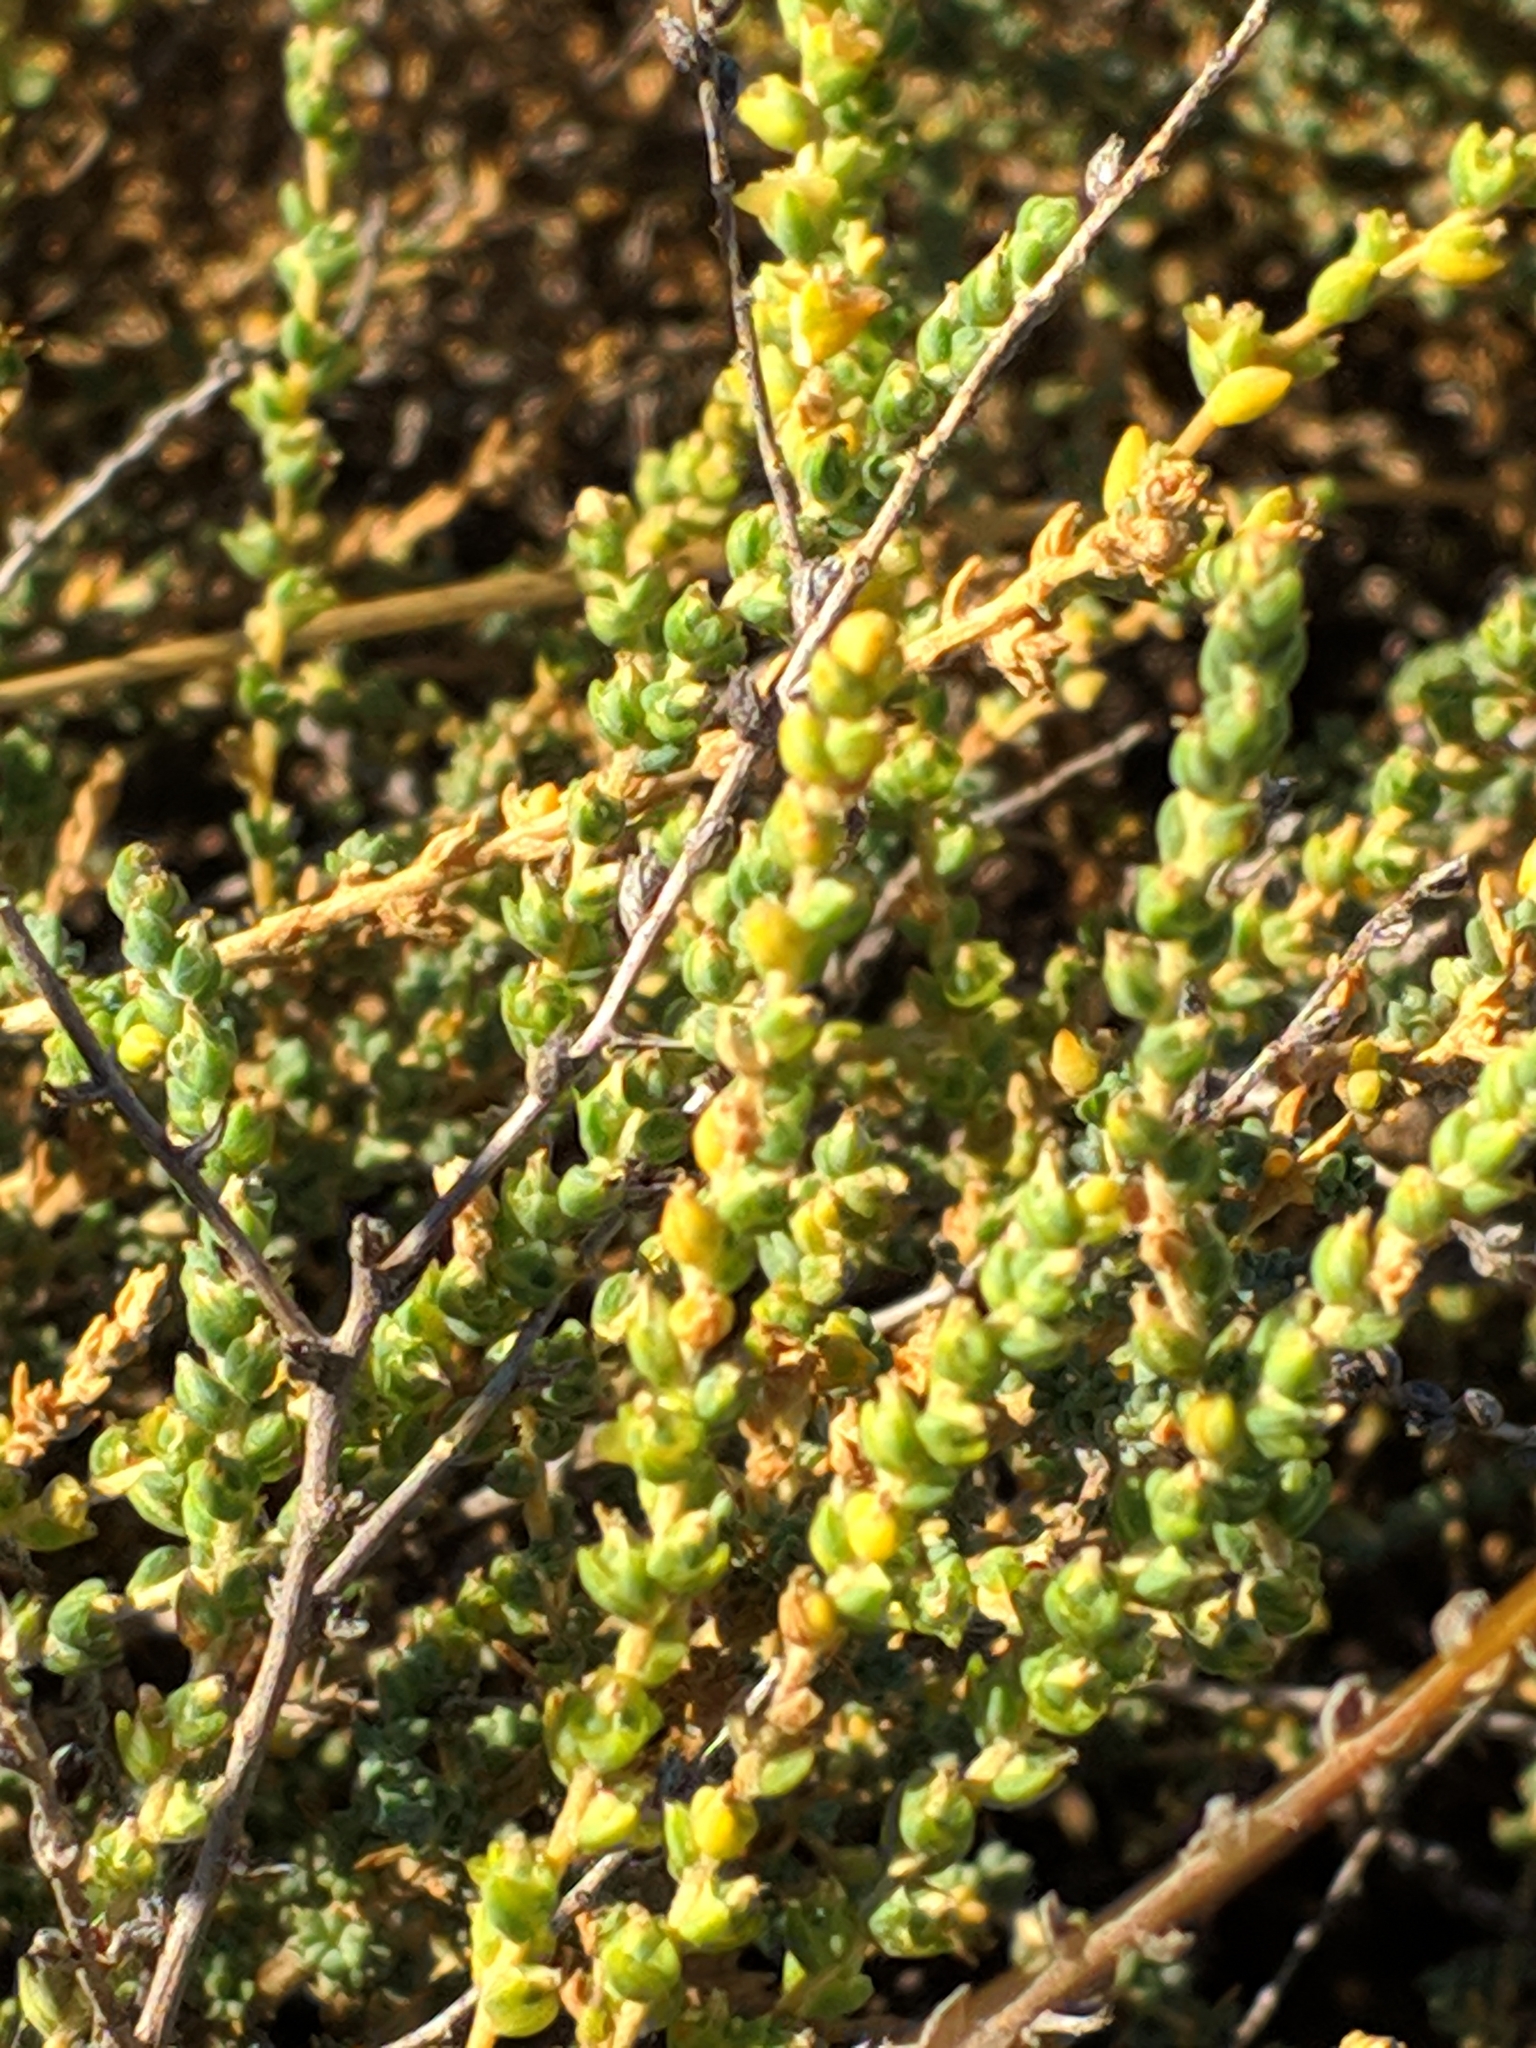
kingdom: Plantae
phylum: Tracheophyta
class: Magnoliopsida
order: Caryophyllales
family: Amaranthaceae
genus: Nitrosalsola
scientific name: Nitrosalsola vermiculata
